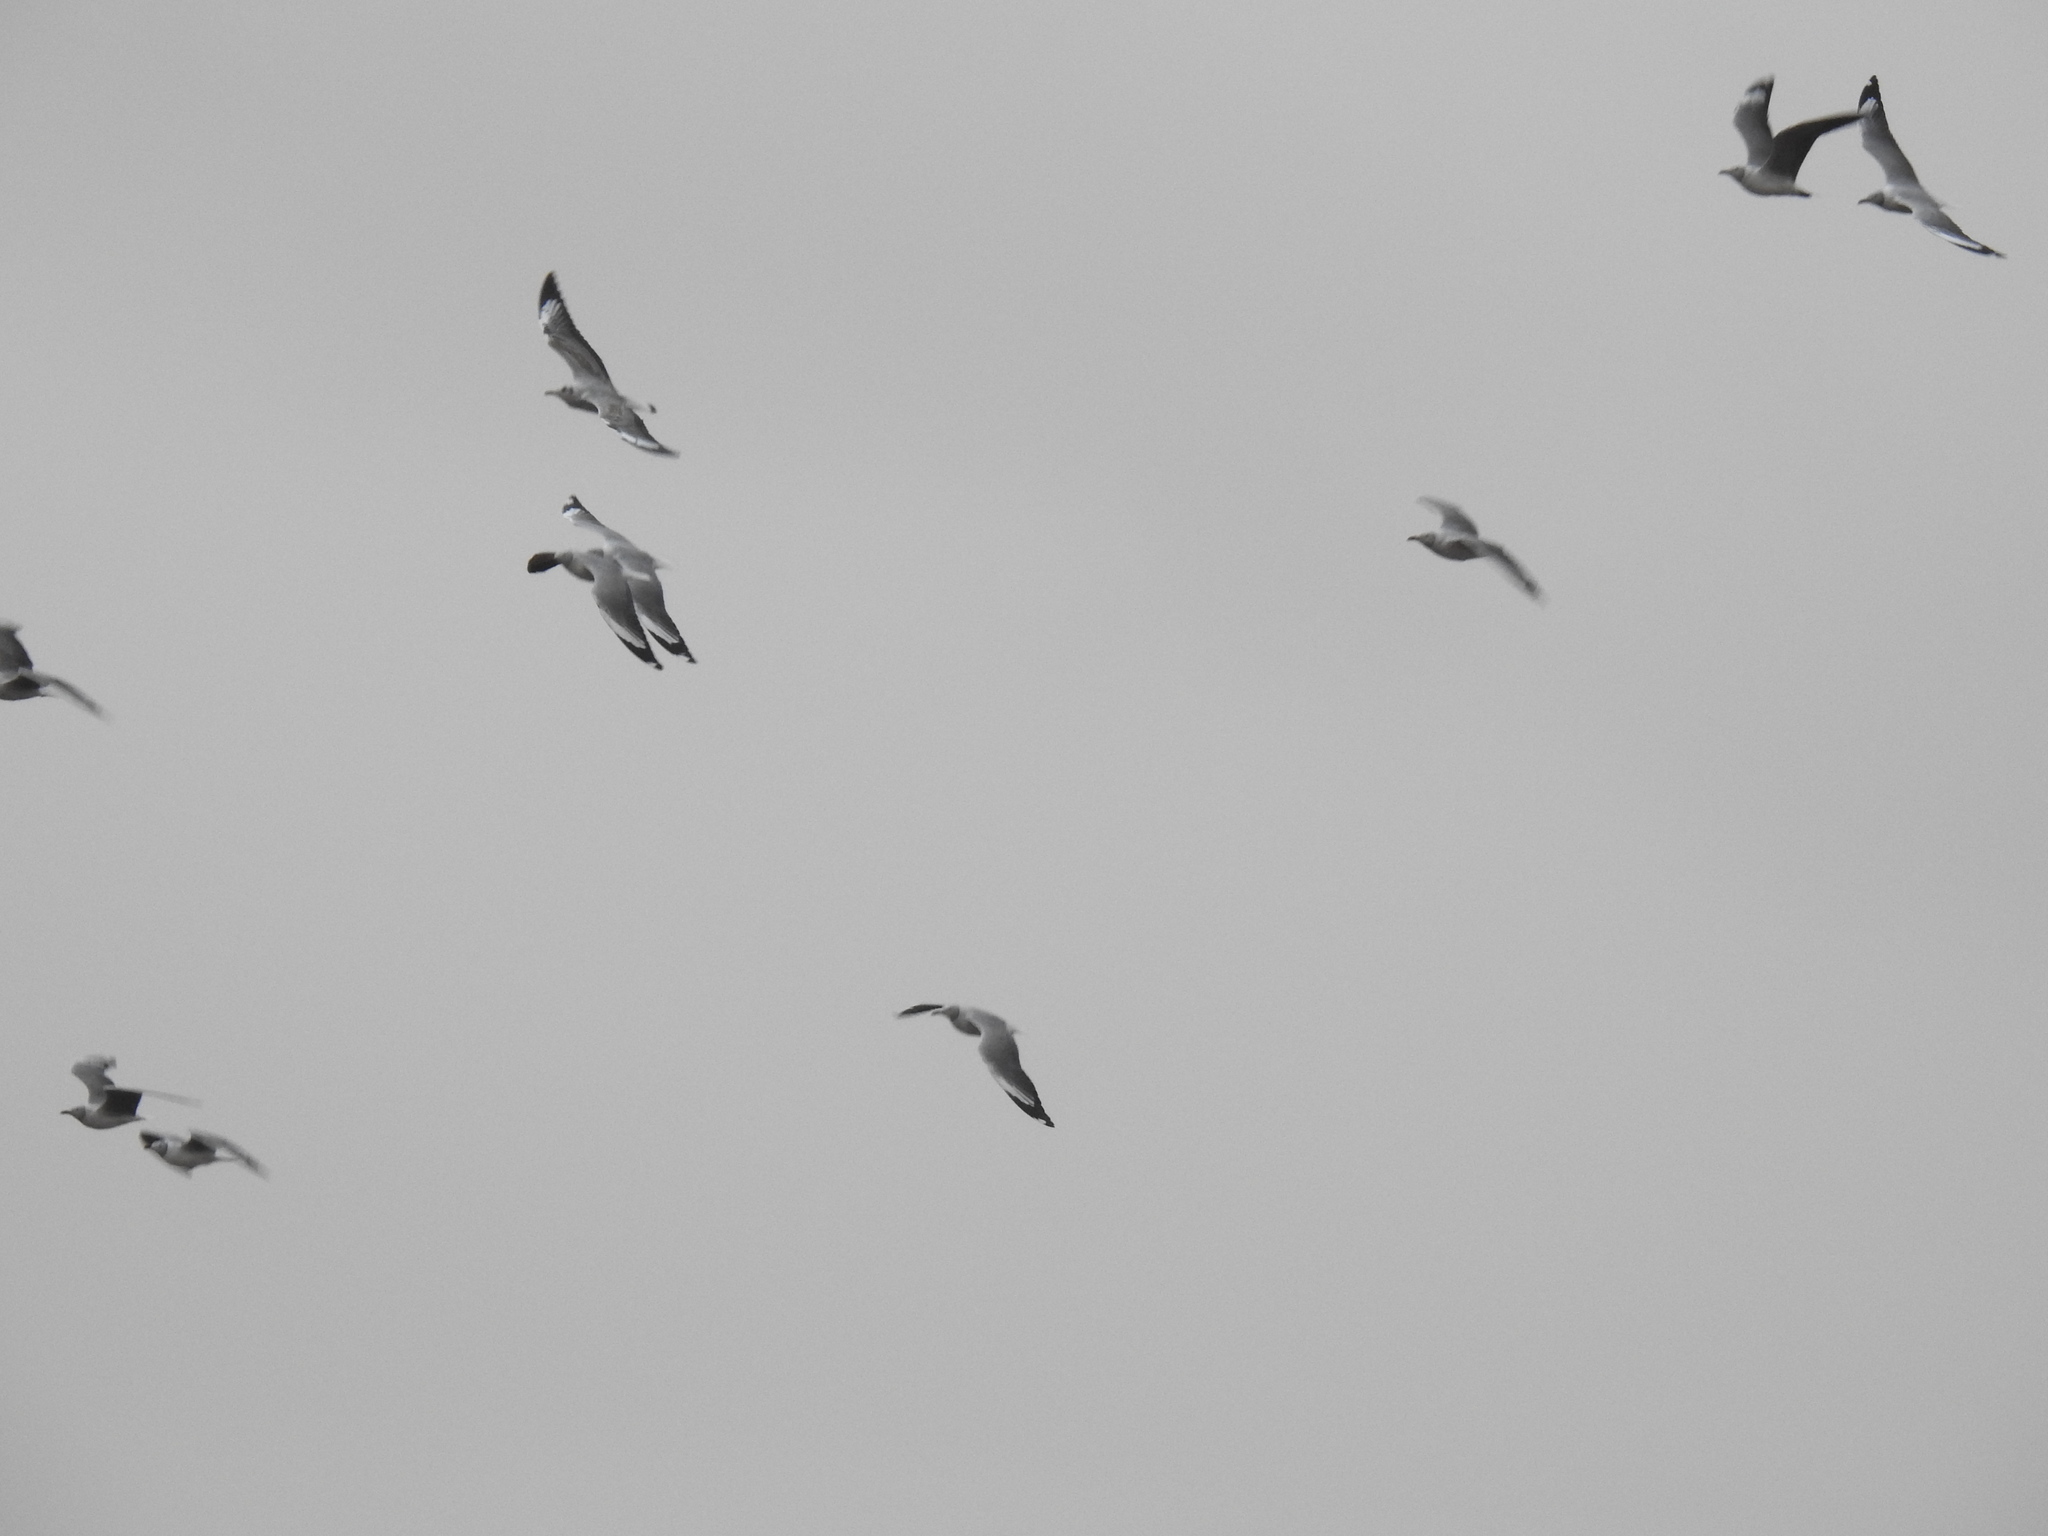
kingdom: Animalia
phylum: Chordata
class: Aves
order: Charadriiformes
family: Laridae
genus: Chroicocephalus
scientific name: Chroicocephalus cirrocephalus
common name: Grey-headed gull
